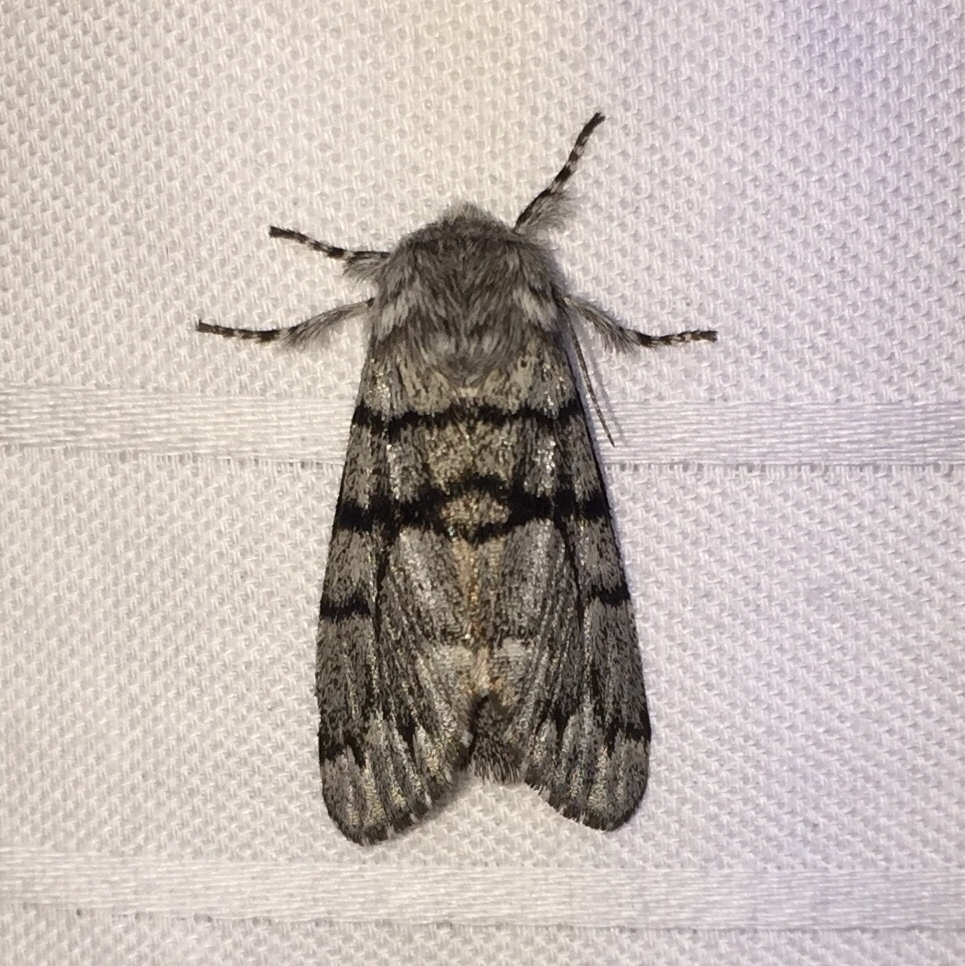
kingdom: Animalia
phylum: Arthropoda
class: Insecta
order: Lepidoptera
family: Noctuidae
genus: Panthea
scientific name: Panthea furcilla
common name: Eastern panthea moth
